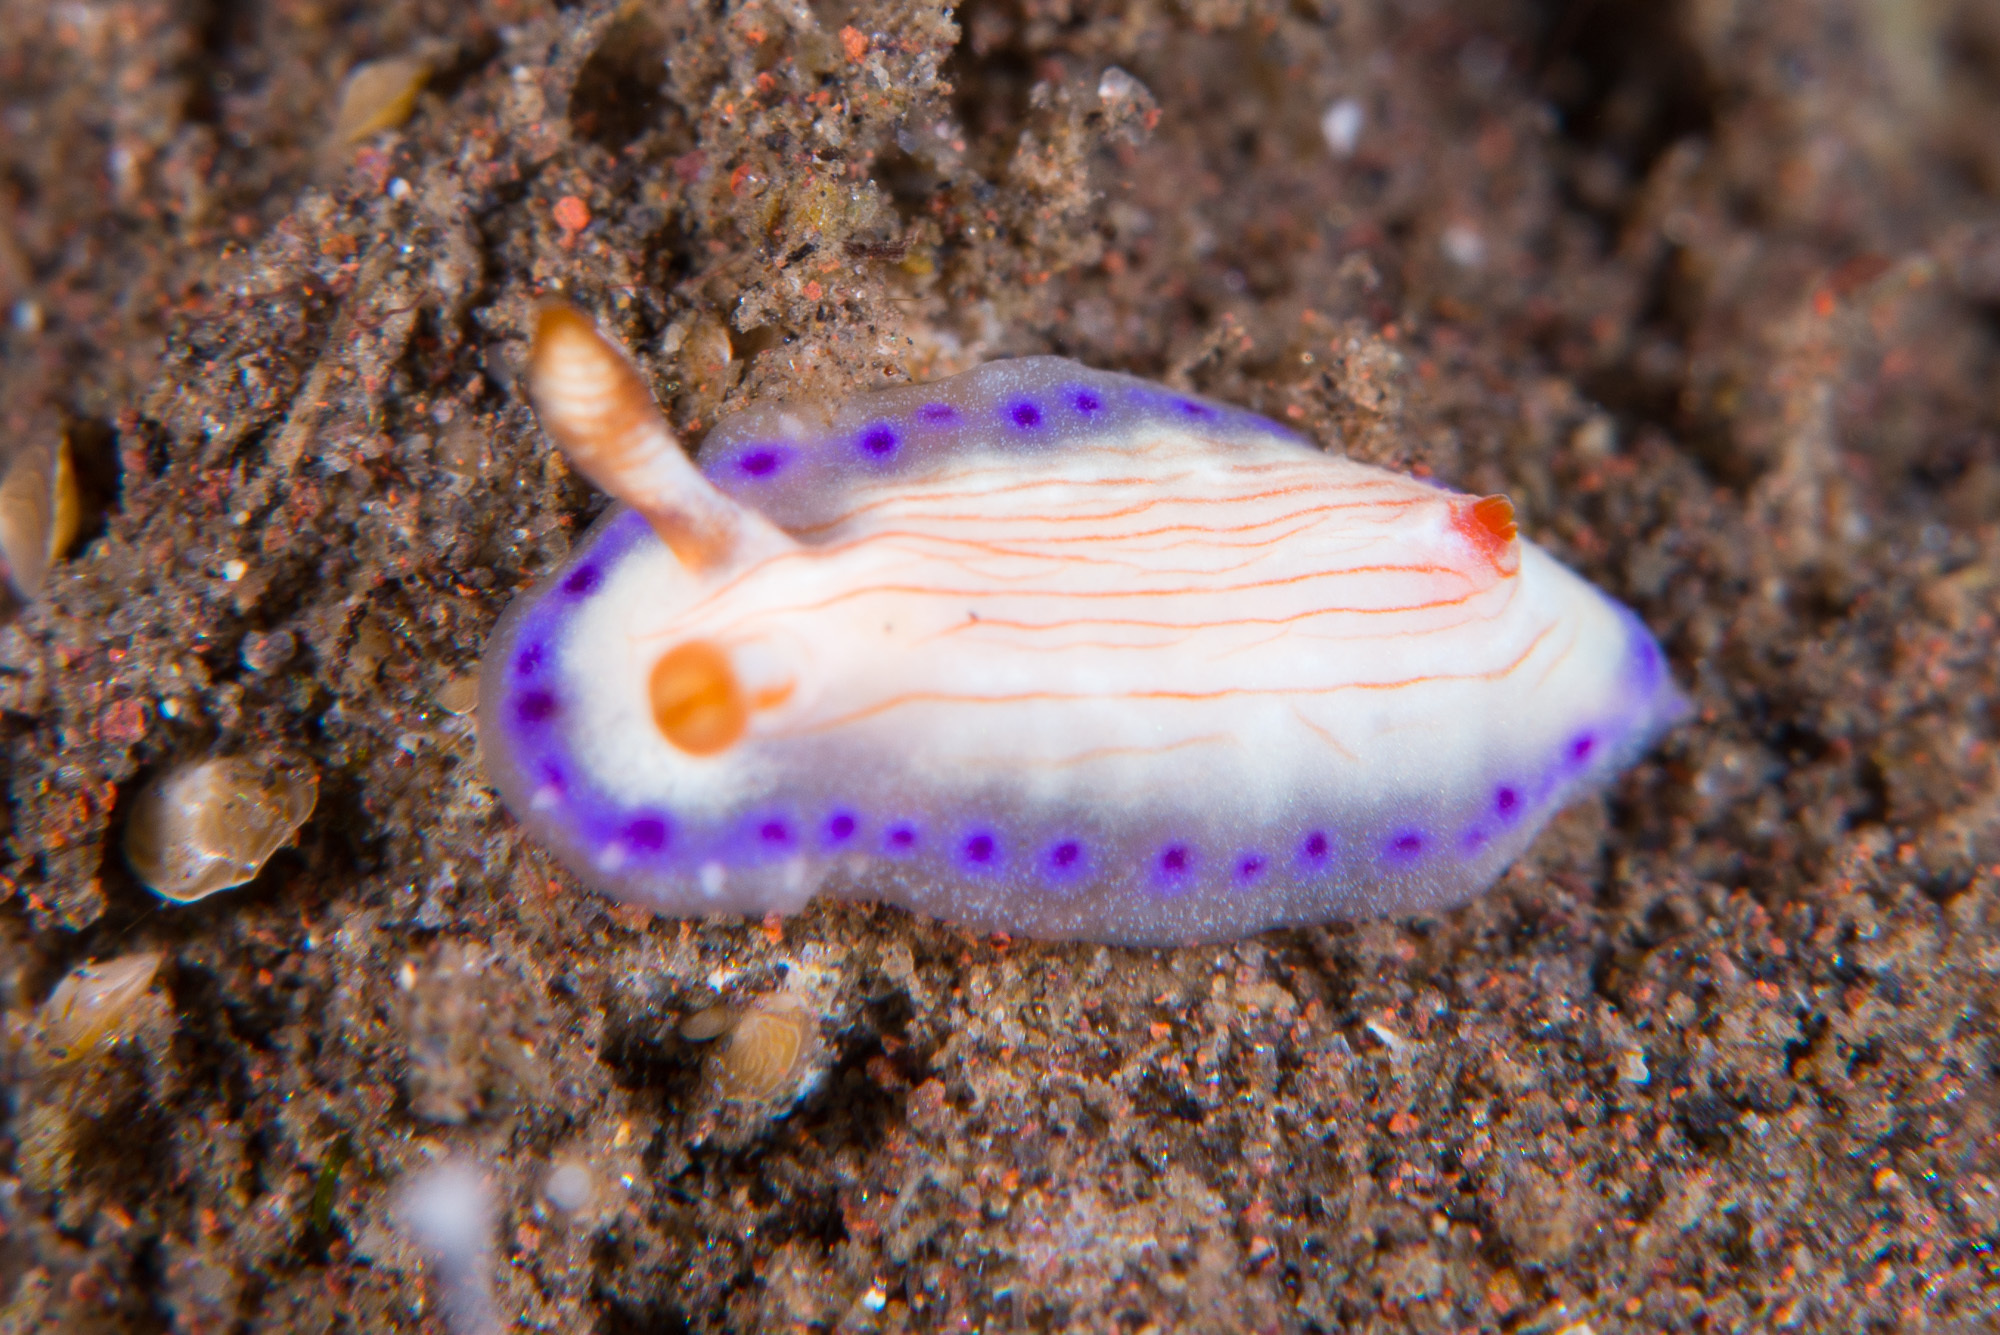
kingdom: Animalia
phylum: Mollusca
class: Gastropoda
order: Nudibranchia
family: Chromodorididae
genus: Hypselodoris
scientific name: Hypselodoris katherinae
